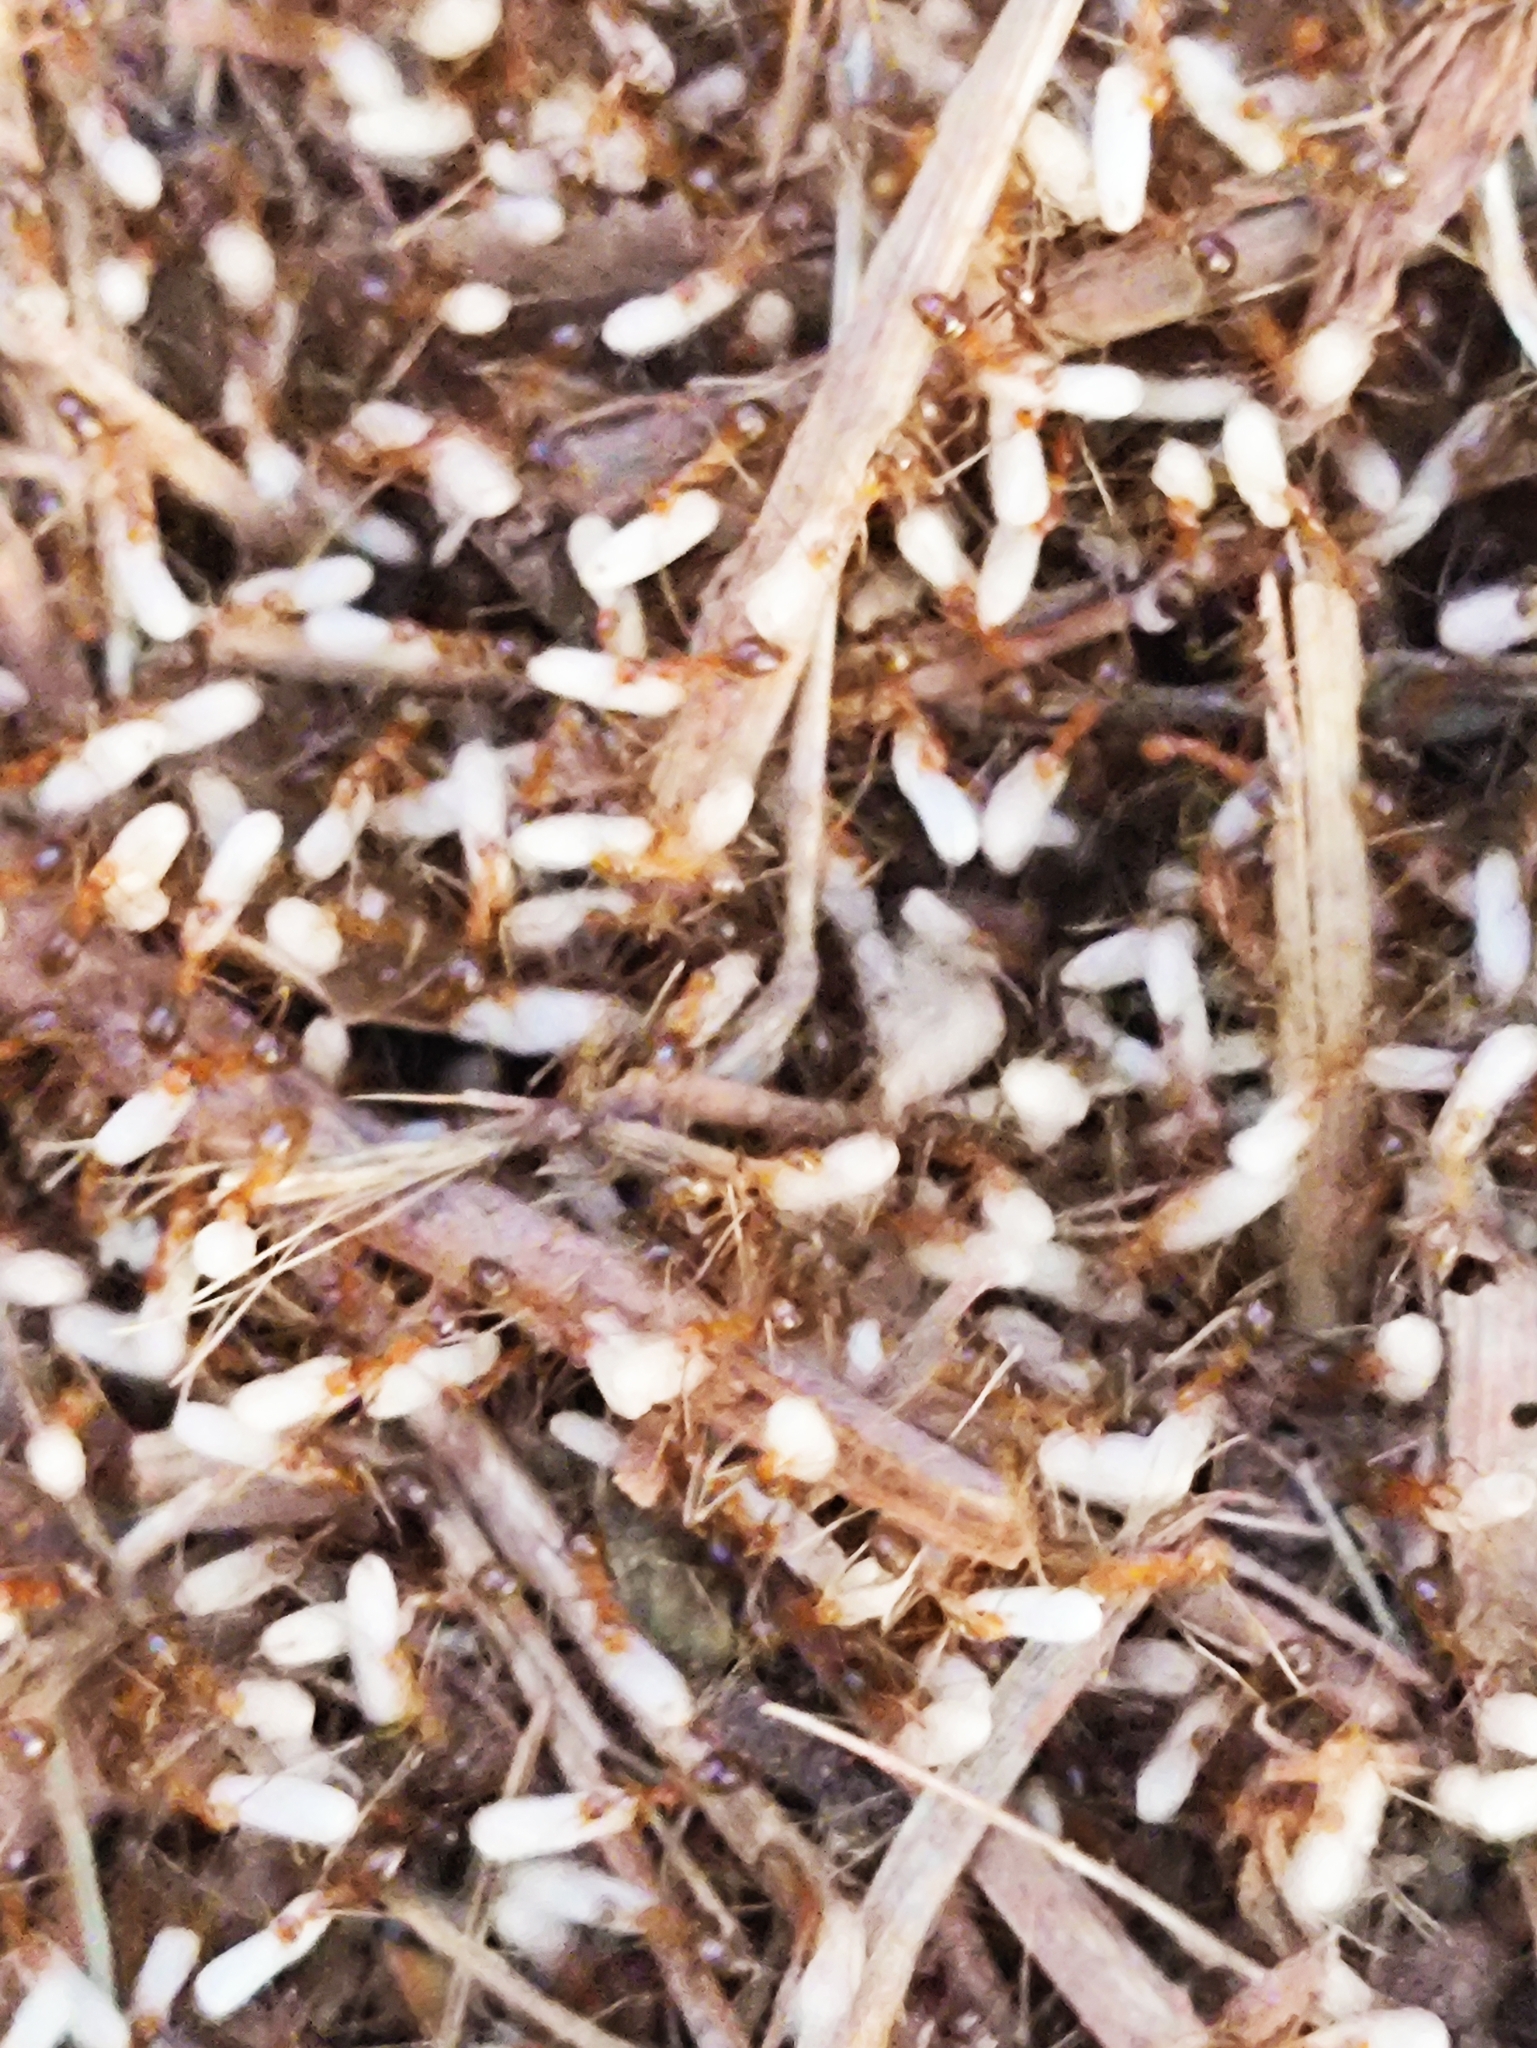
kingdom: Animalia
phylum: Arthropoda
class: Insecta
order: Hymenoptera
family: Formicidae
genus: Anoplolepis
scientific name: Anoplolepis gracilipes
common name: Ant
